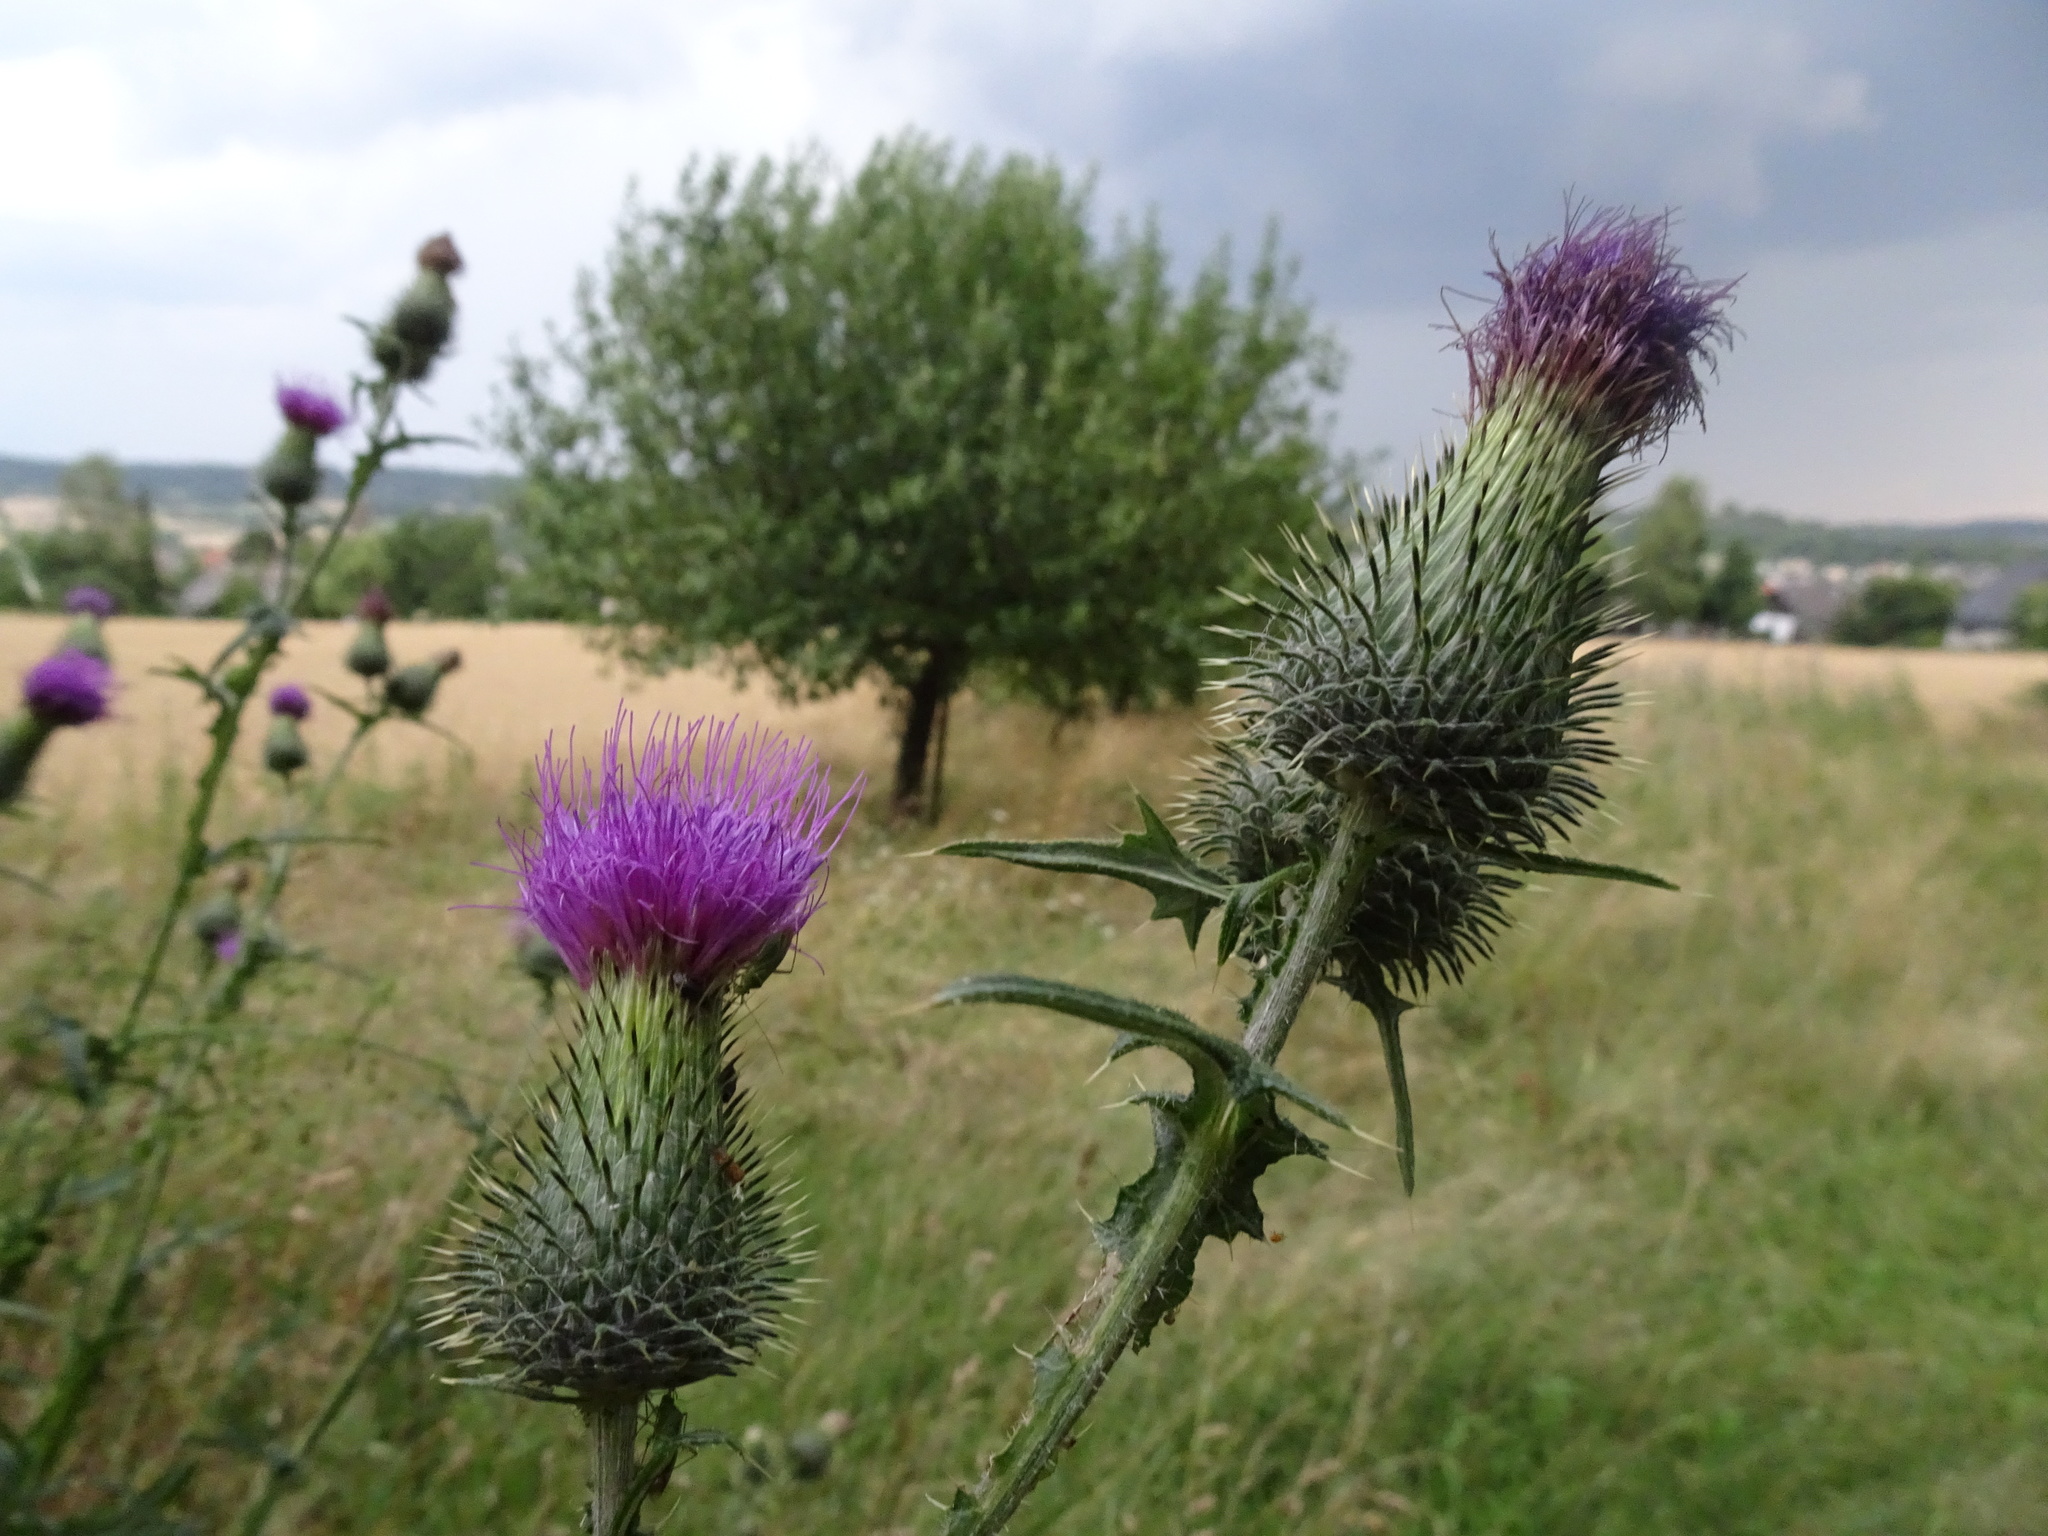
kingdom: Plantae
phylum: Tracheophyta
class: Magnoliopsida
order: Asterales
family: Asteraceae
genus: Cirsium
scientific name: Cirsium vulgare
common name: Bull thistle
